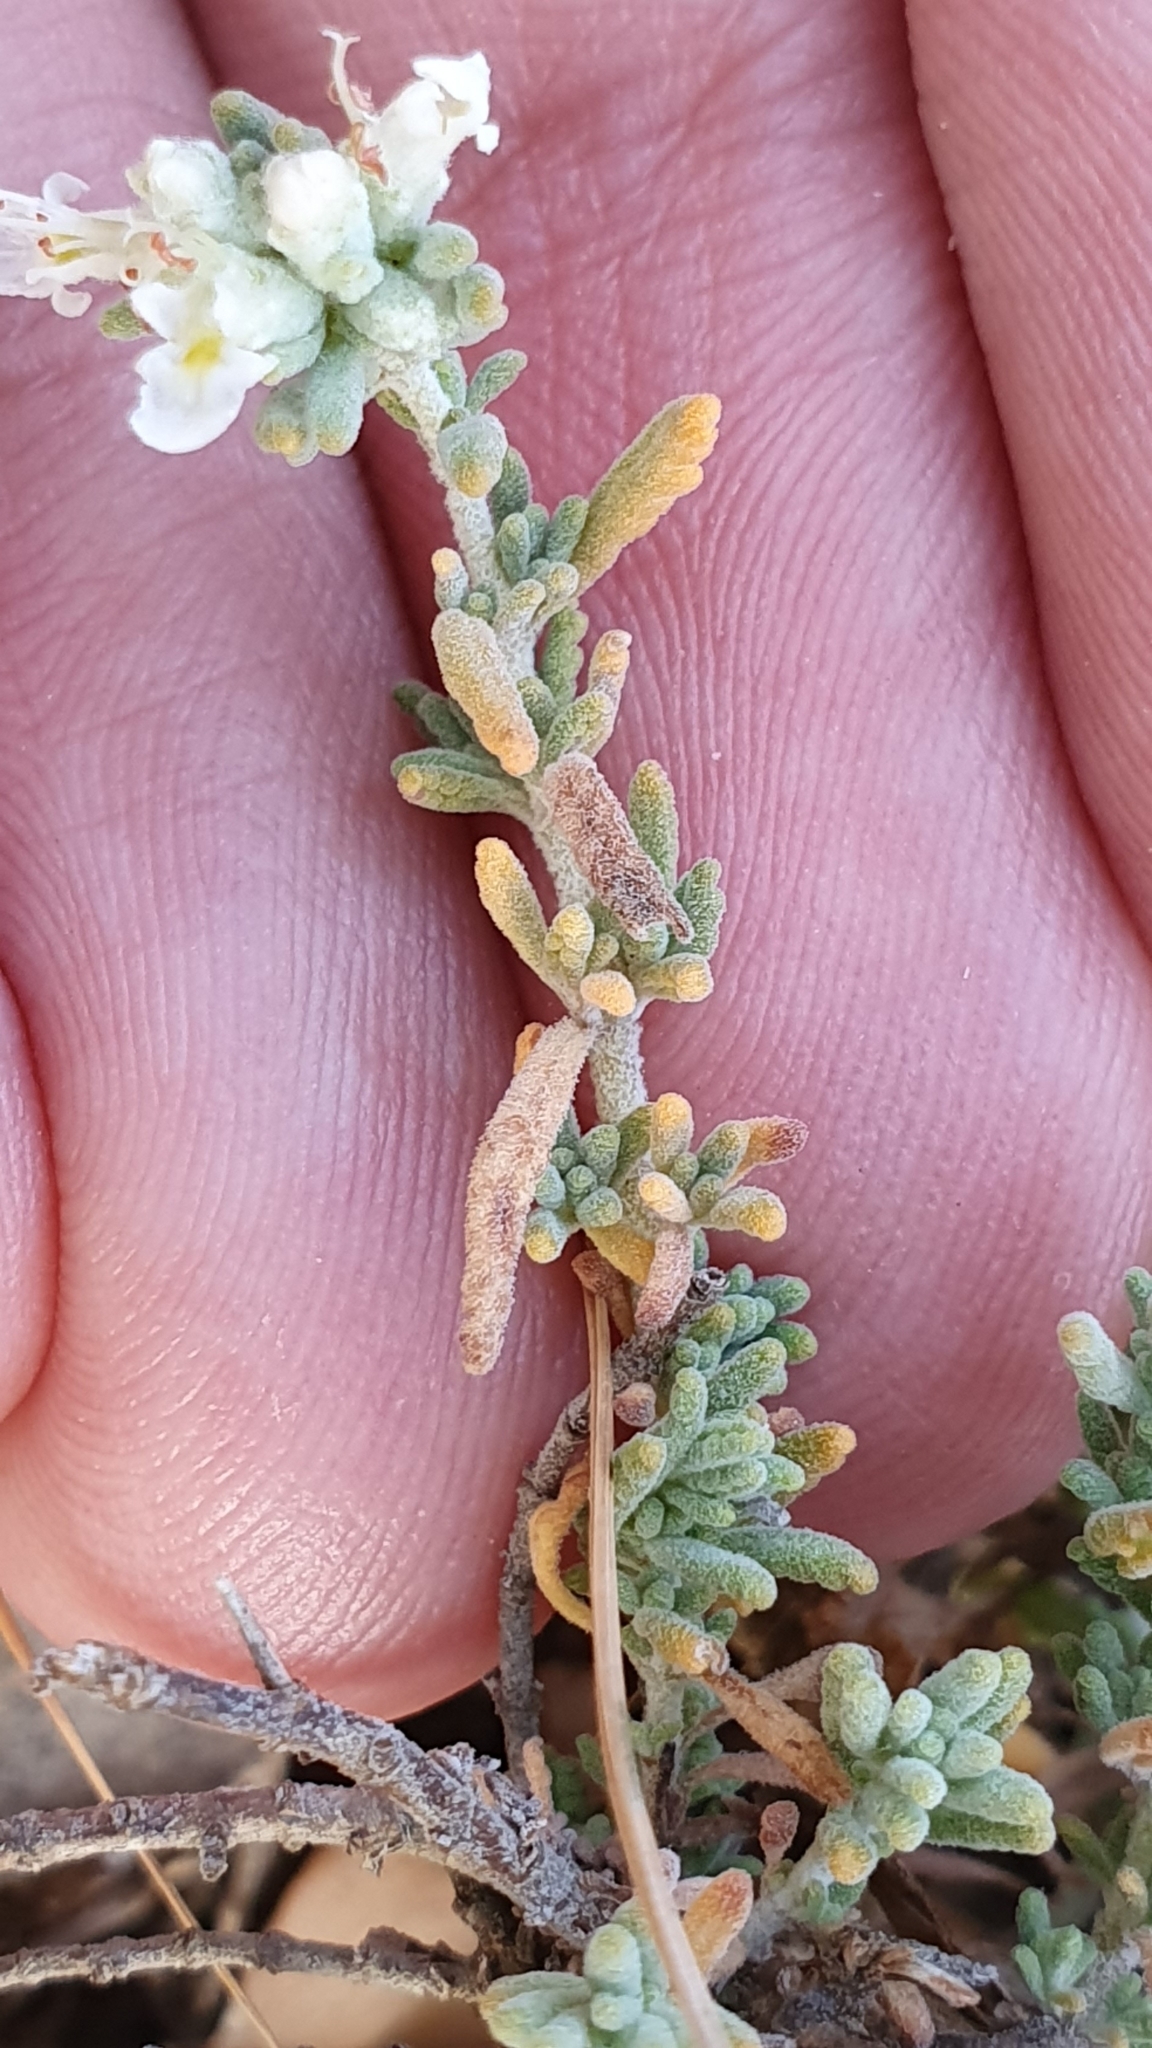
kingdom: Plantae
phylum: Tracheophyta
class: Magnoliopsida
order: Lamiales
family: Lamiaceae
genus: Teucrium
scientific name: Teucrium capitatum
